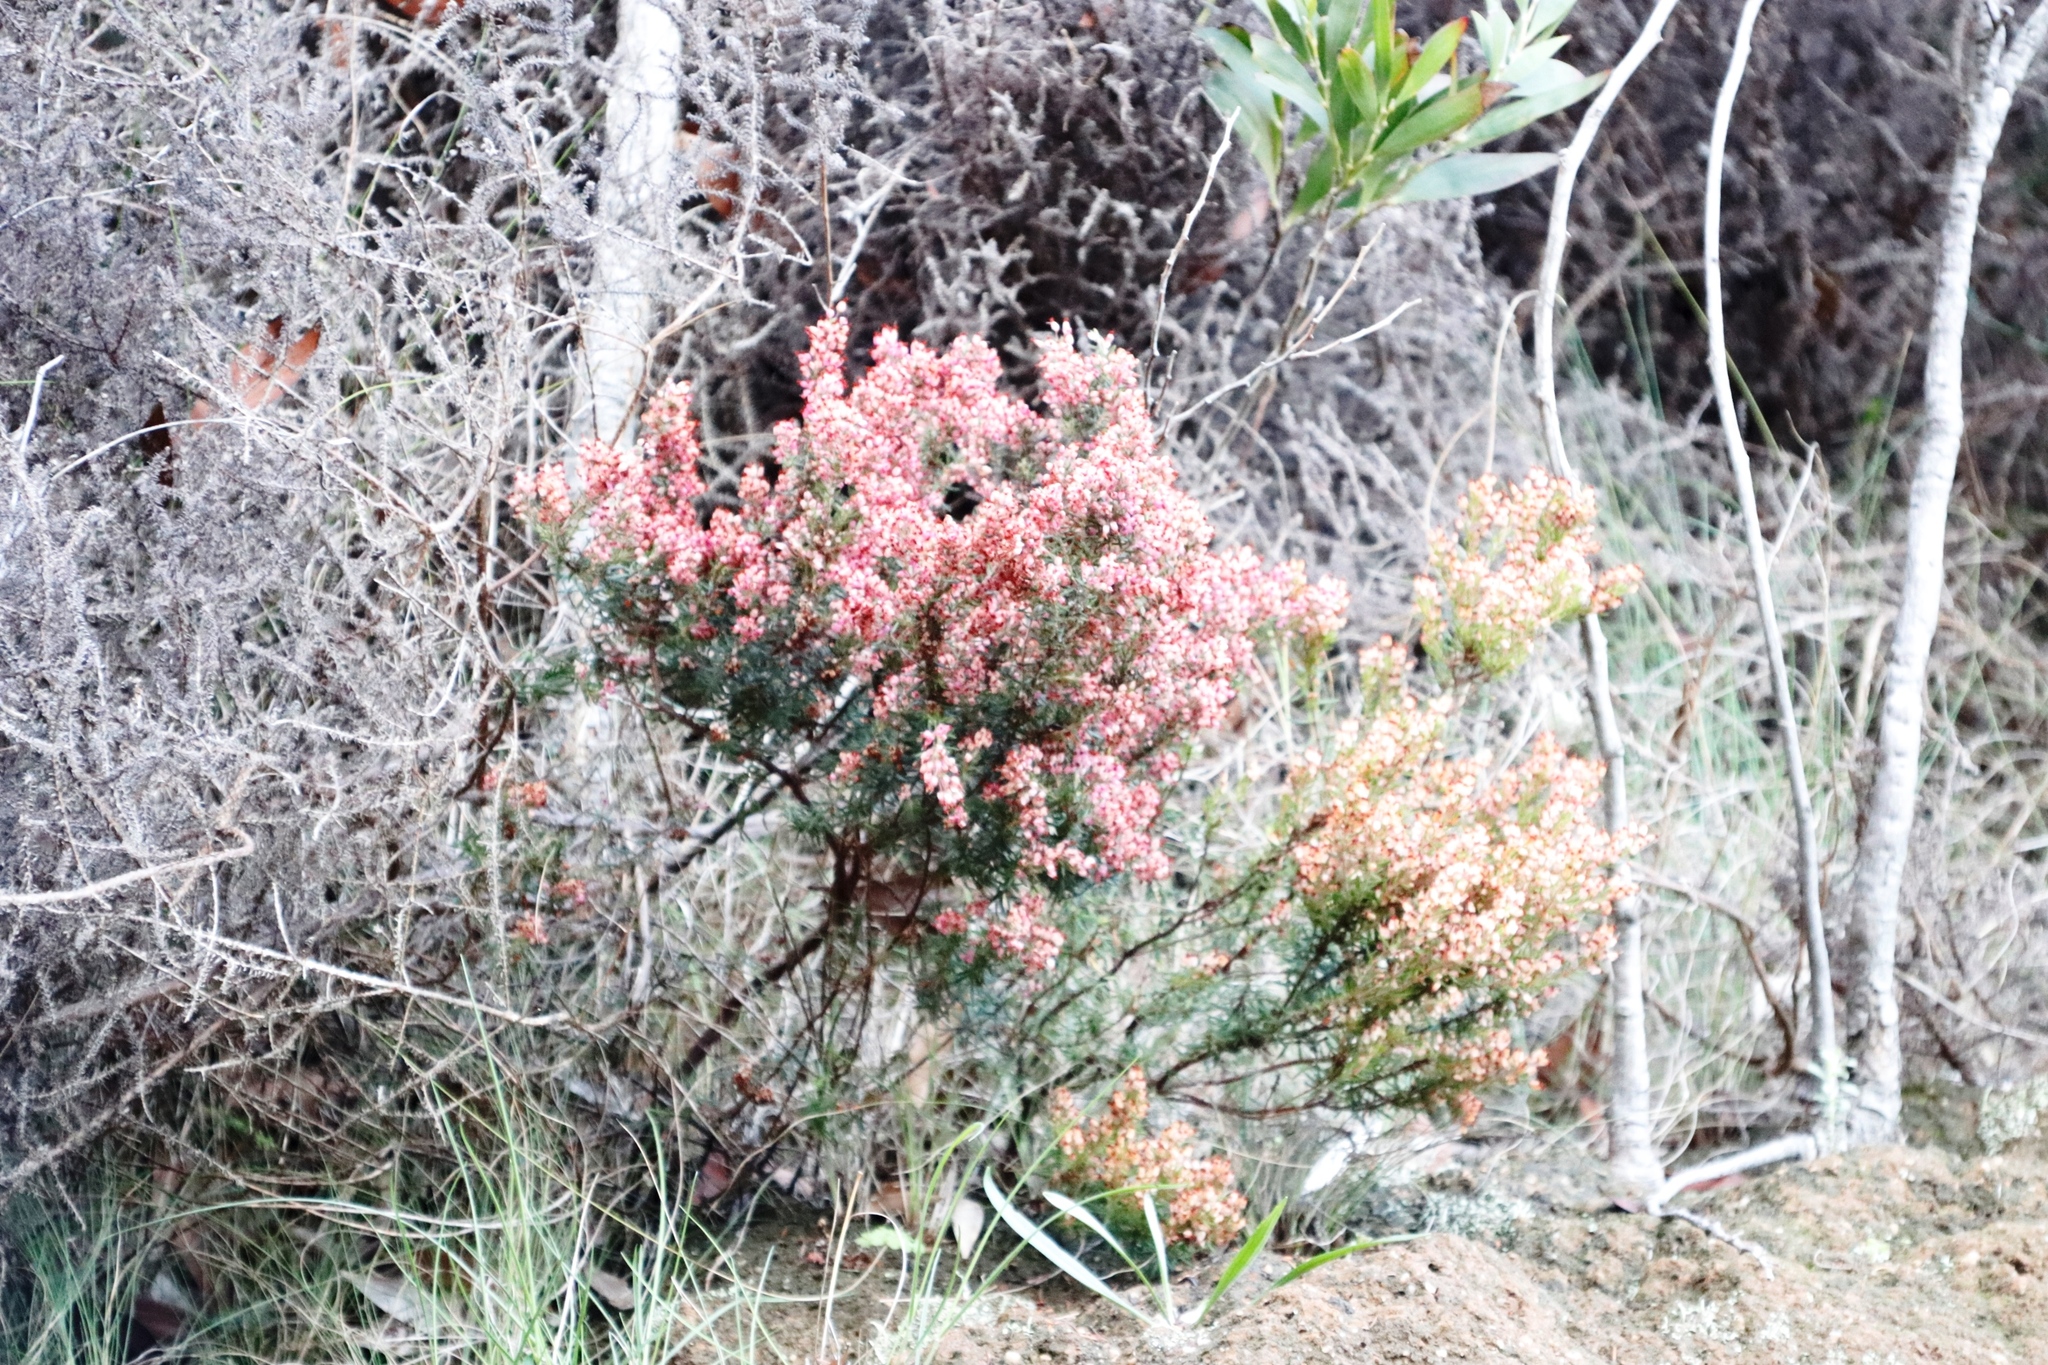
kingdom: Plantae
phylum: Tracheophyta
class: Magnoliopsida
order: Ericales
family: Ericaceae
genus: Erica
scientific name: Erica nudiflora
